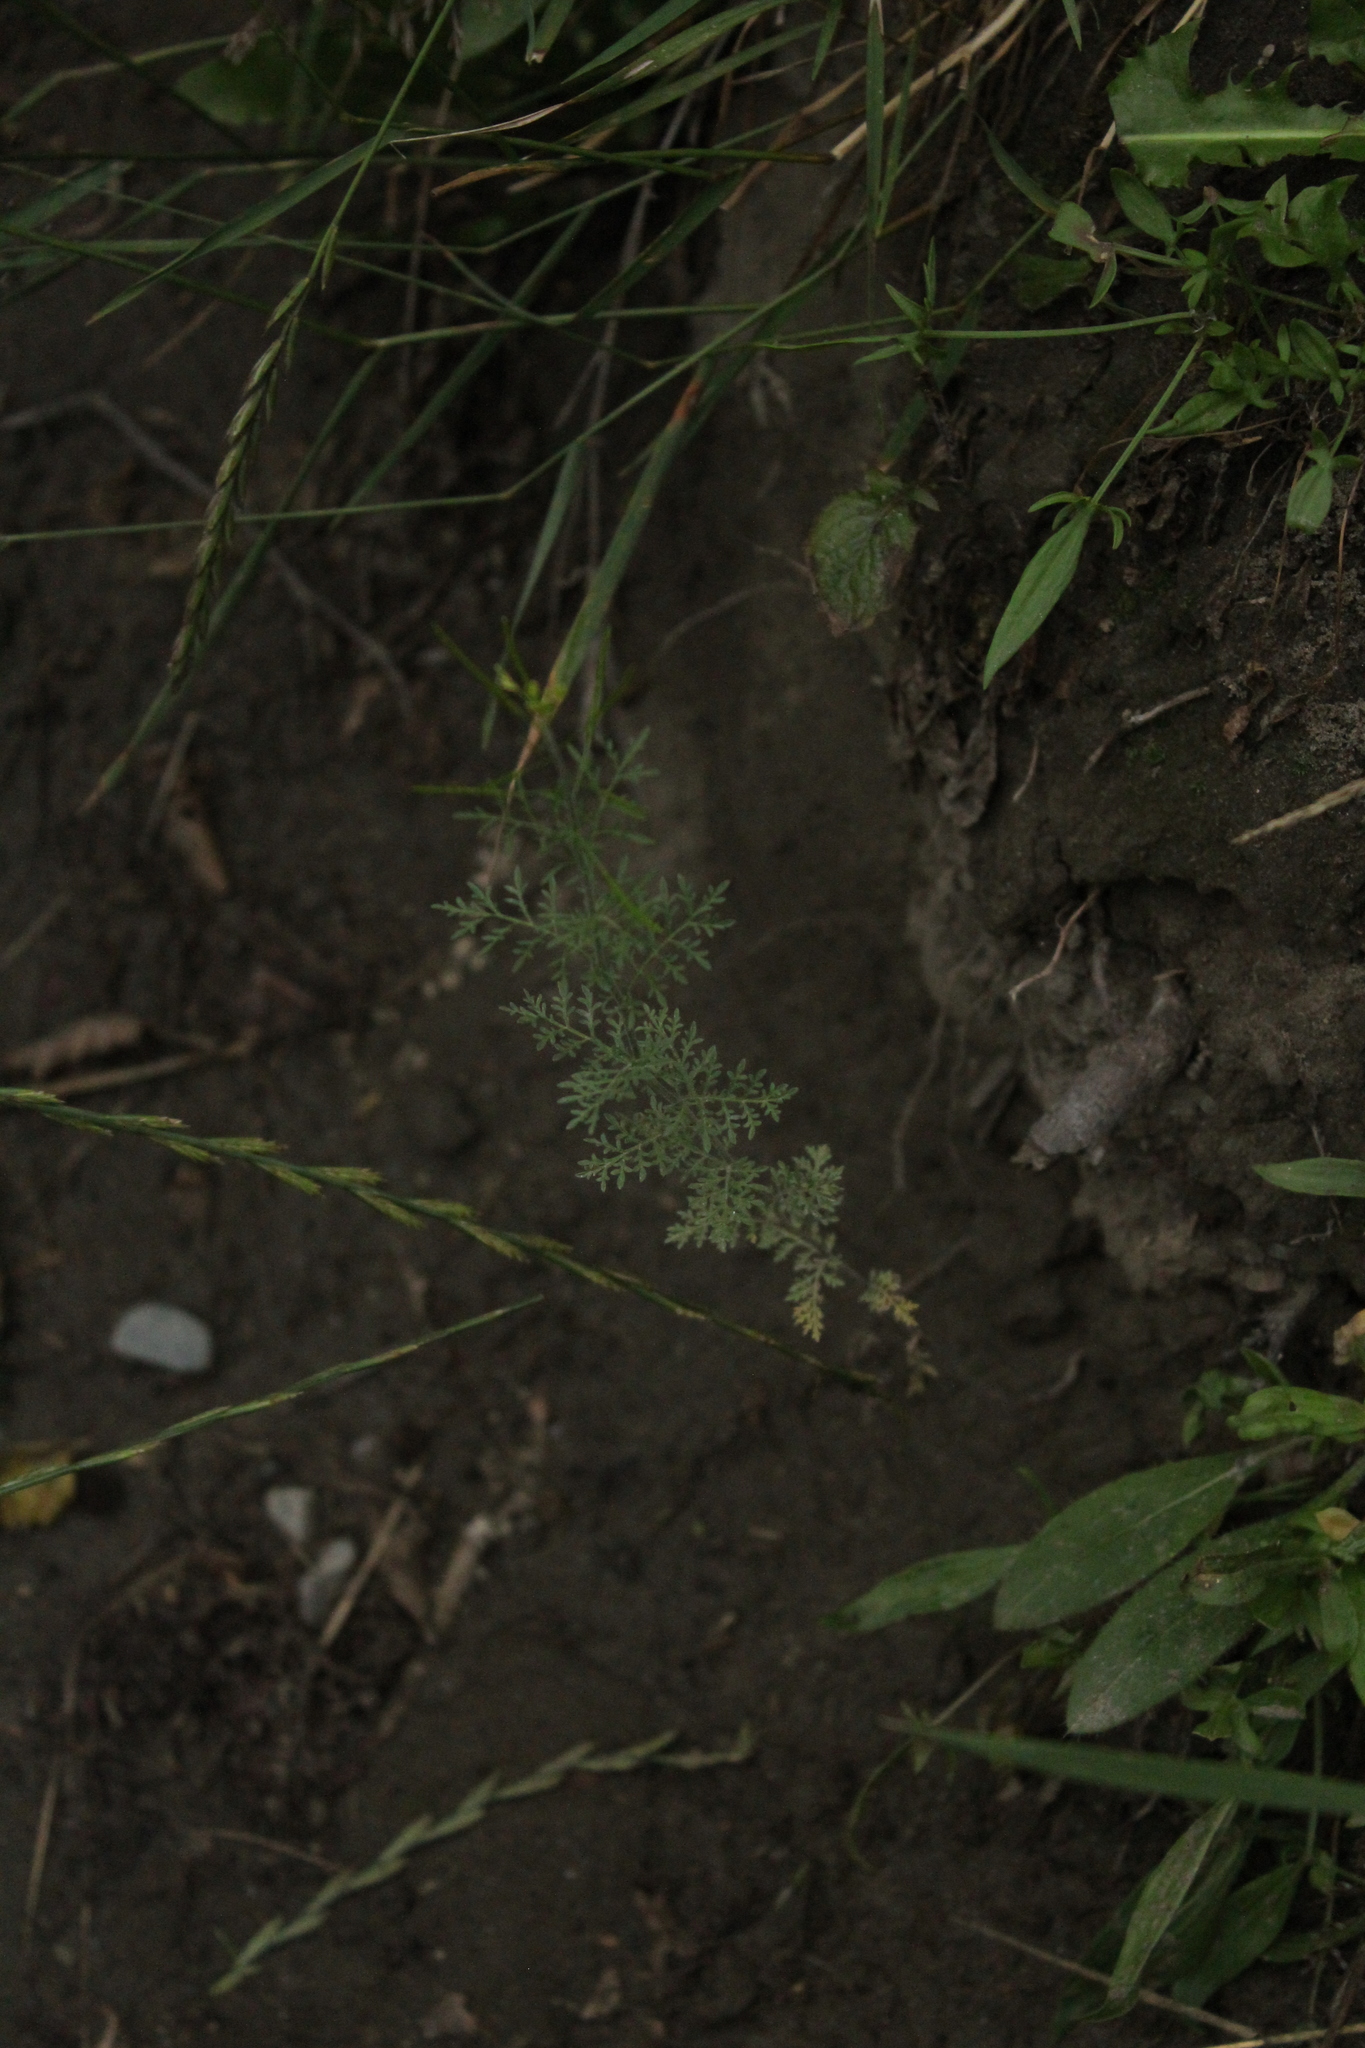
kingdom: Plantae
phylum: Tracheophyta
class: Magnoliopsida
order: Brassicales
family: Brassicaceae
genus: Descurainia
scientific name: Descurainia sophia
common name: Flixweed
